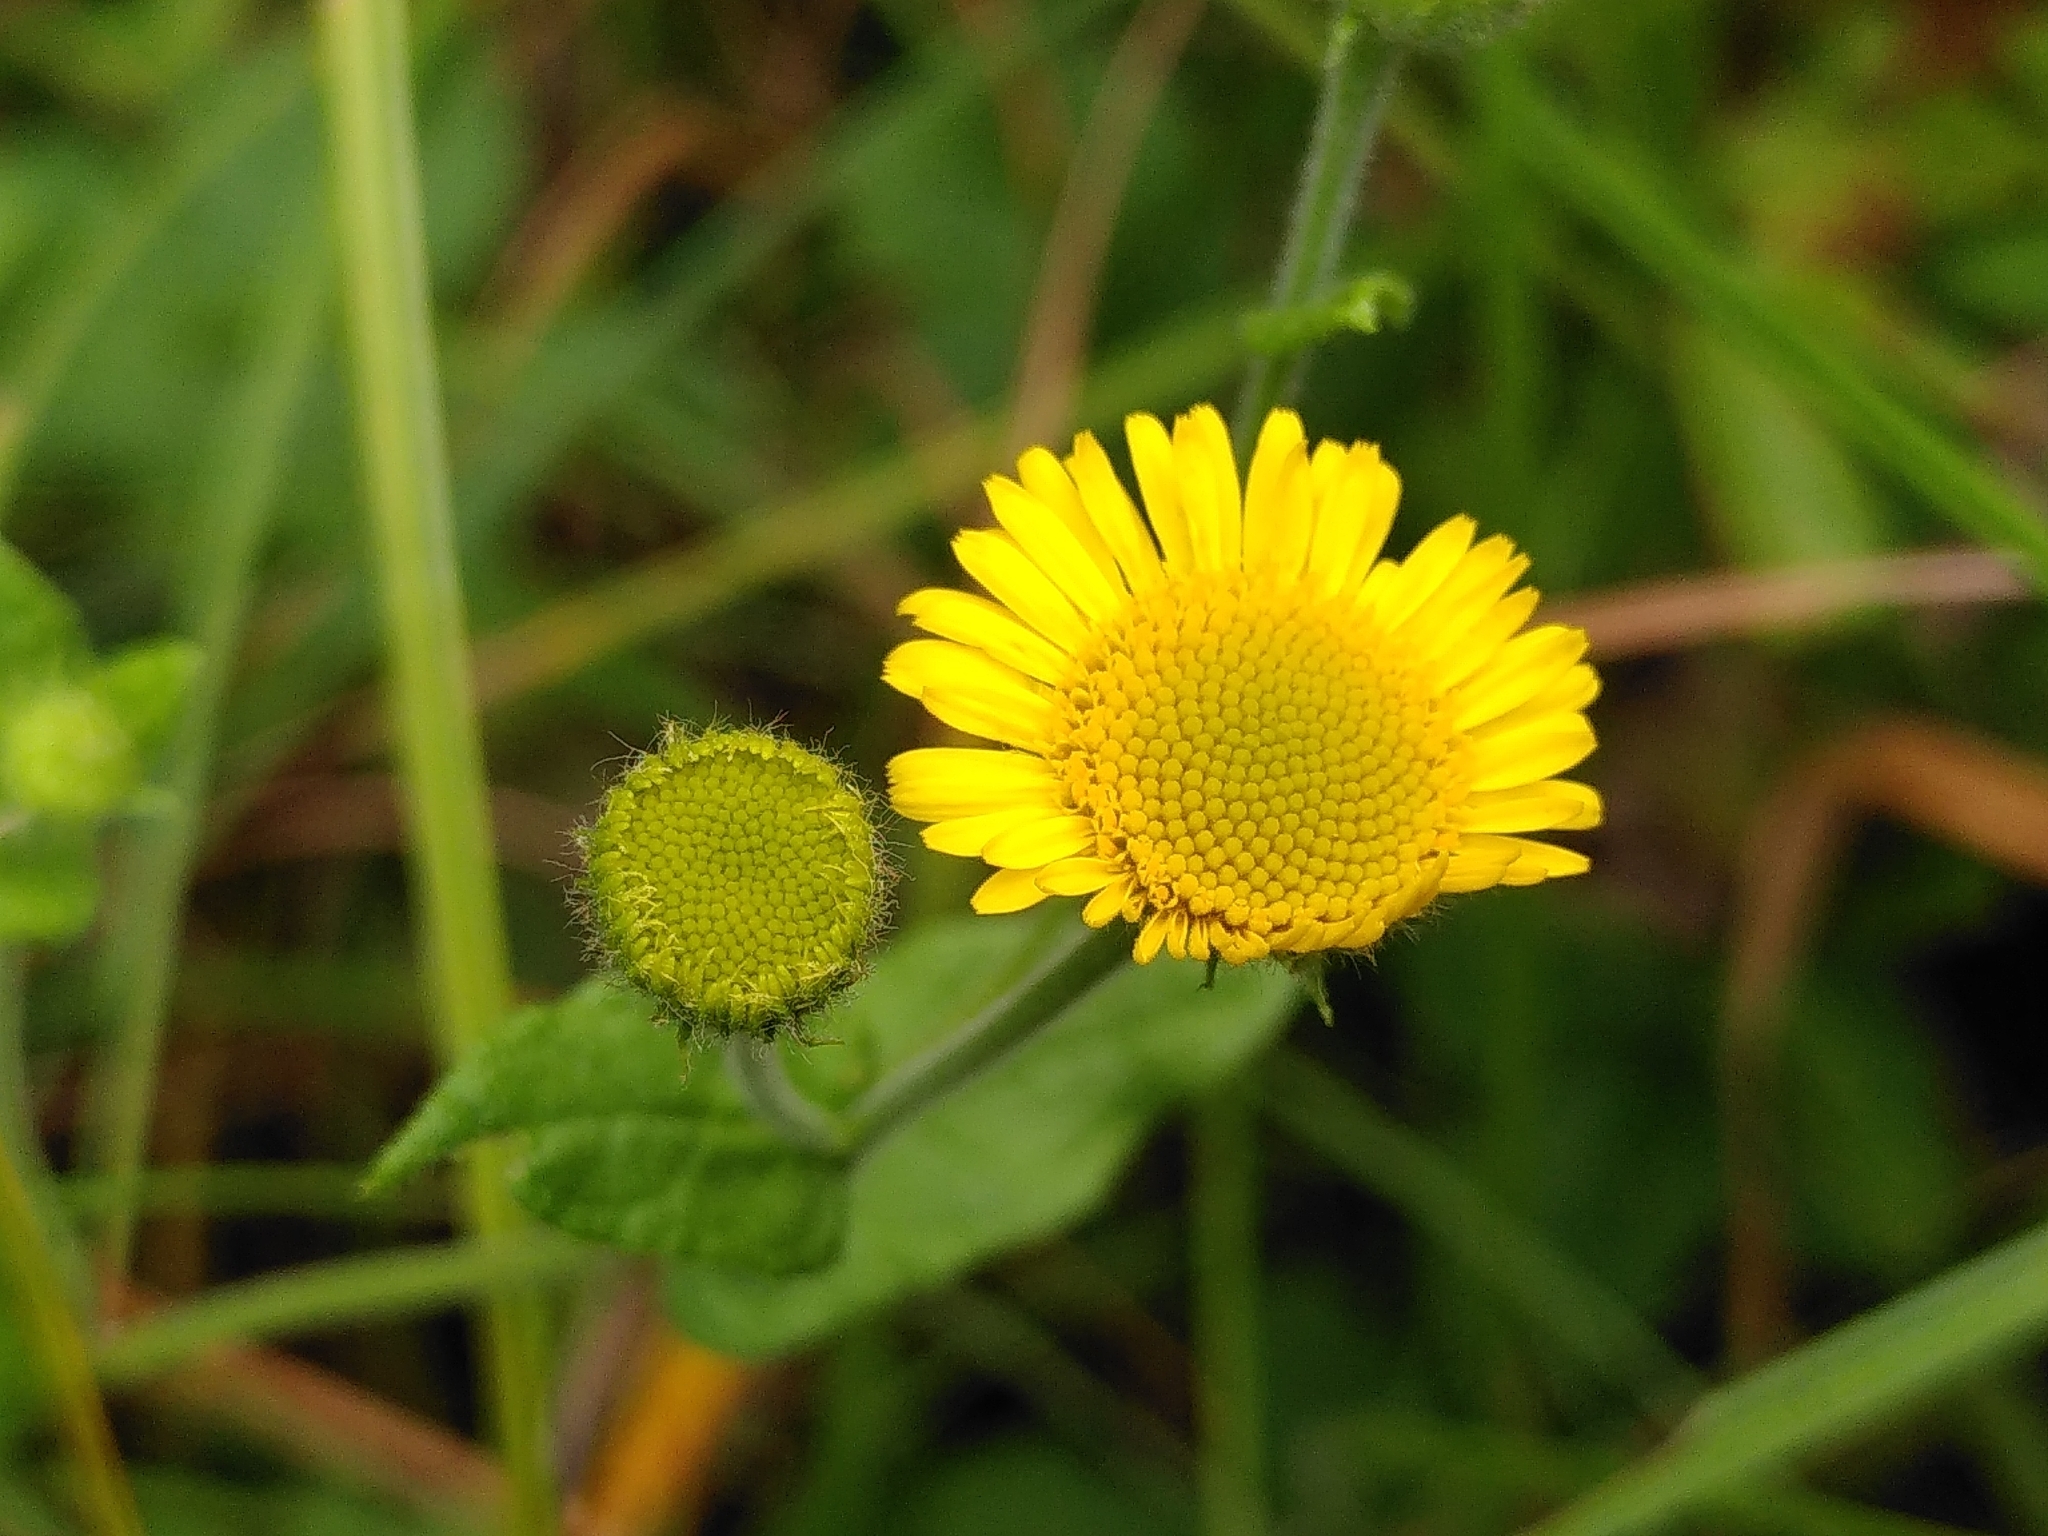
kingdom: Plantae
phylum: Tracheophyta
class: Magnoliopsida
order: Asterales
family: Asteraceae
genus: Pulicaria
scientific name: Pulicaria dysenterica
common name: Common fleabane
